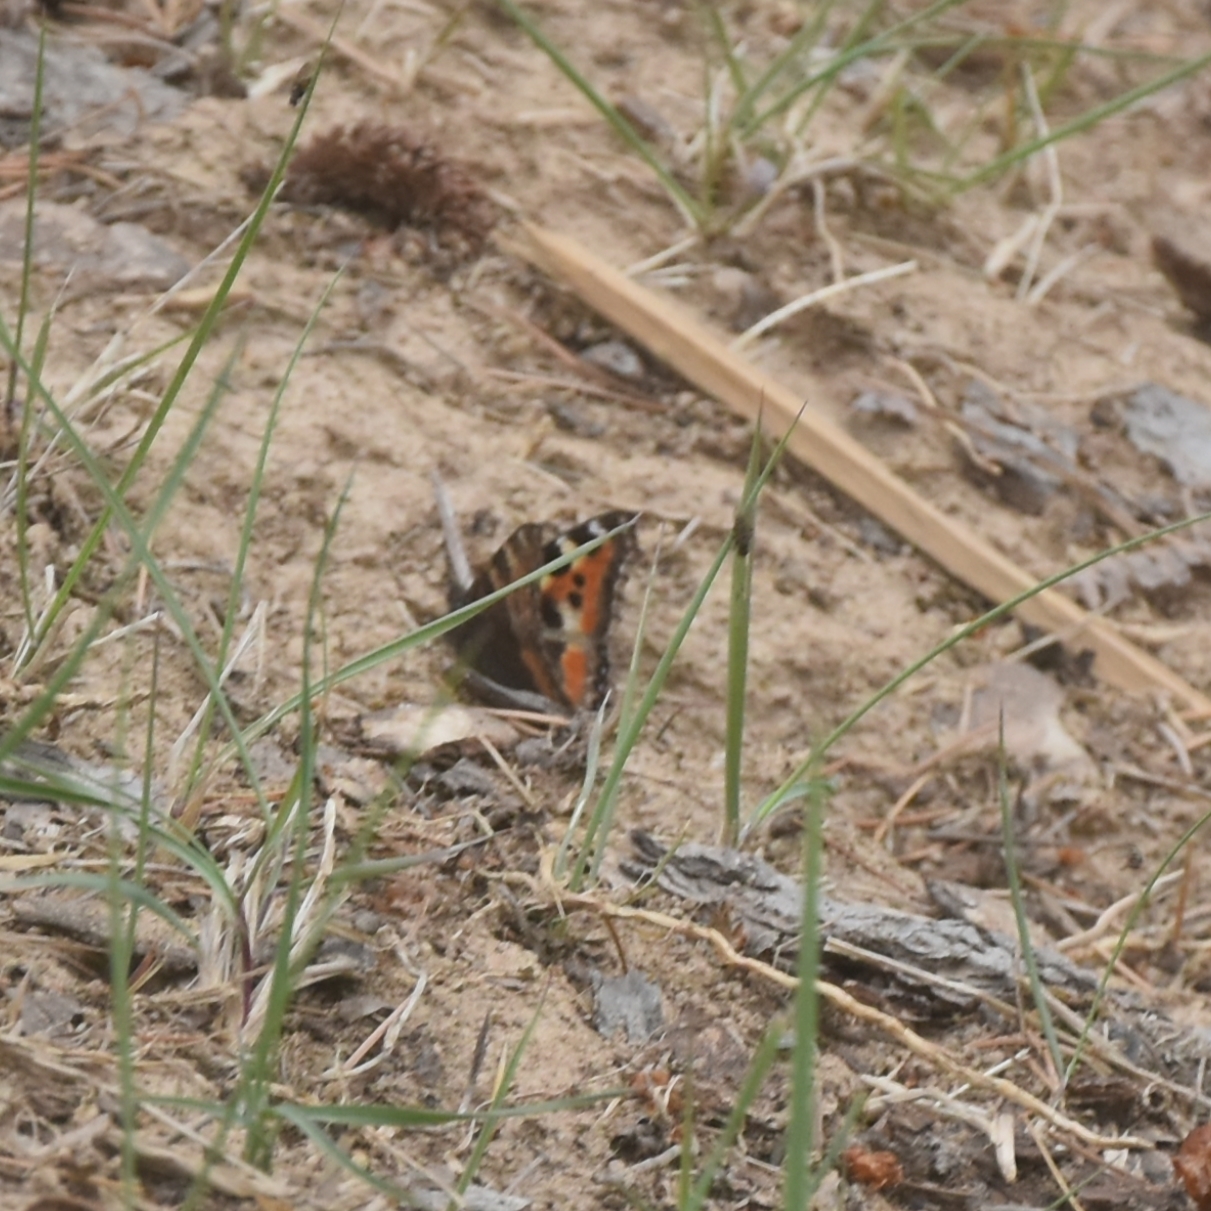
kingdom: Animalia
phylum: Arthropoda
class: Insecta
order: Lepidoptera
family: Nymphalidae
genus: Aglais
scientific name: Aglais caschmirensis
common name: Indian tortoiseshell
